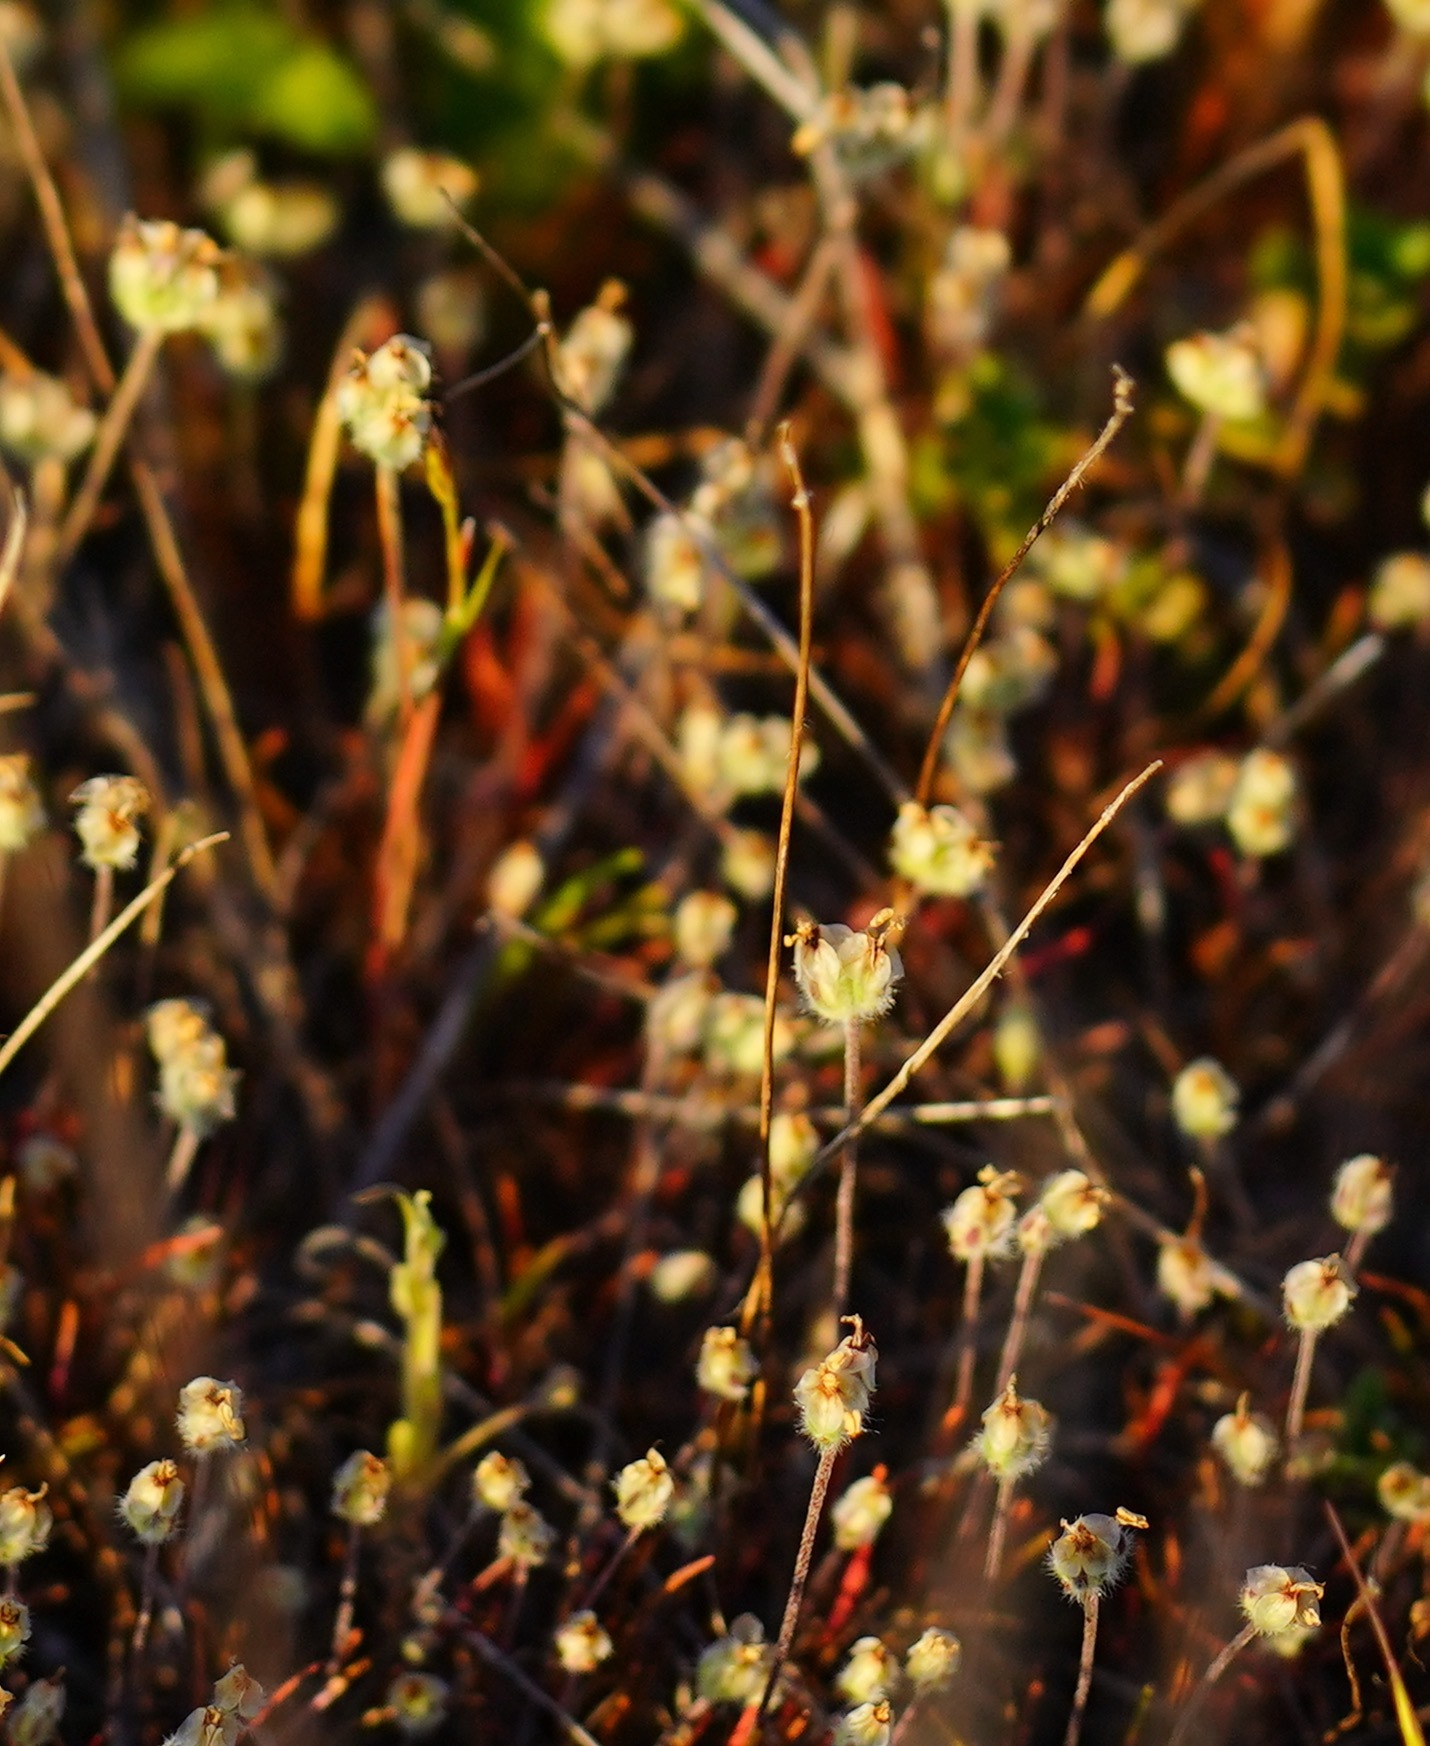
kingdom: Plantae
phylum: Tracheophyta
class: Magnoliopsida
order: Lamiales
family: Plantaginaceae
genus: Plantago
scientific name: Plantago erecta
